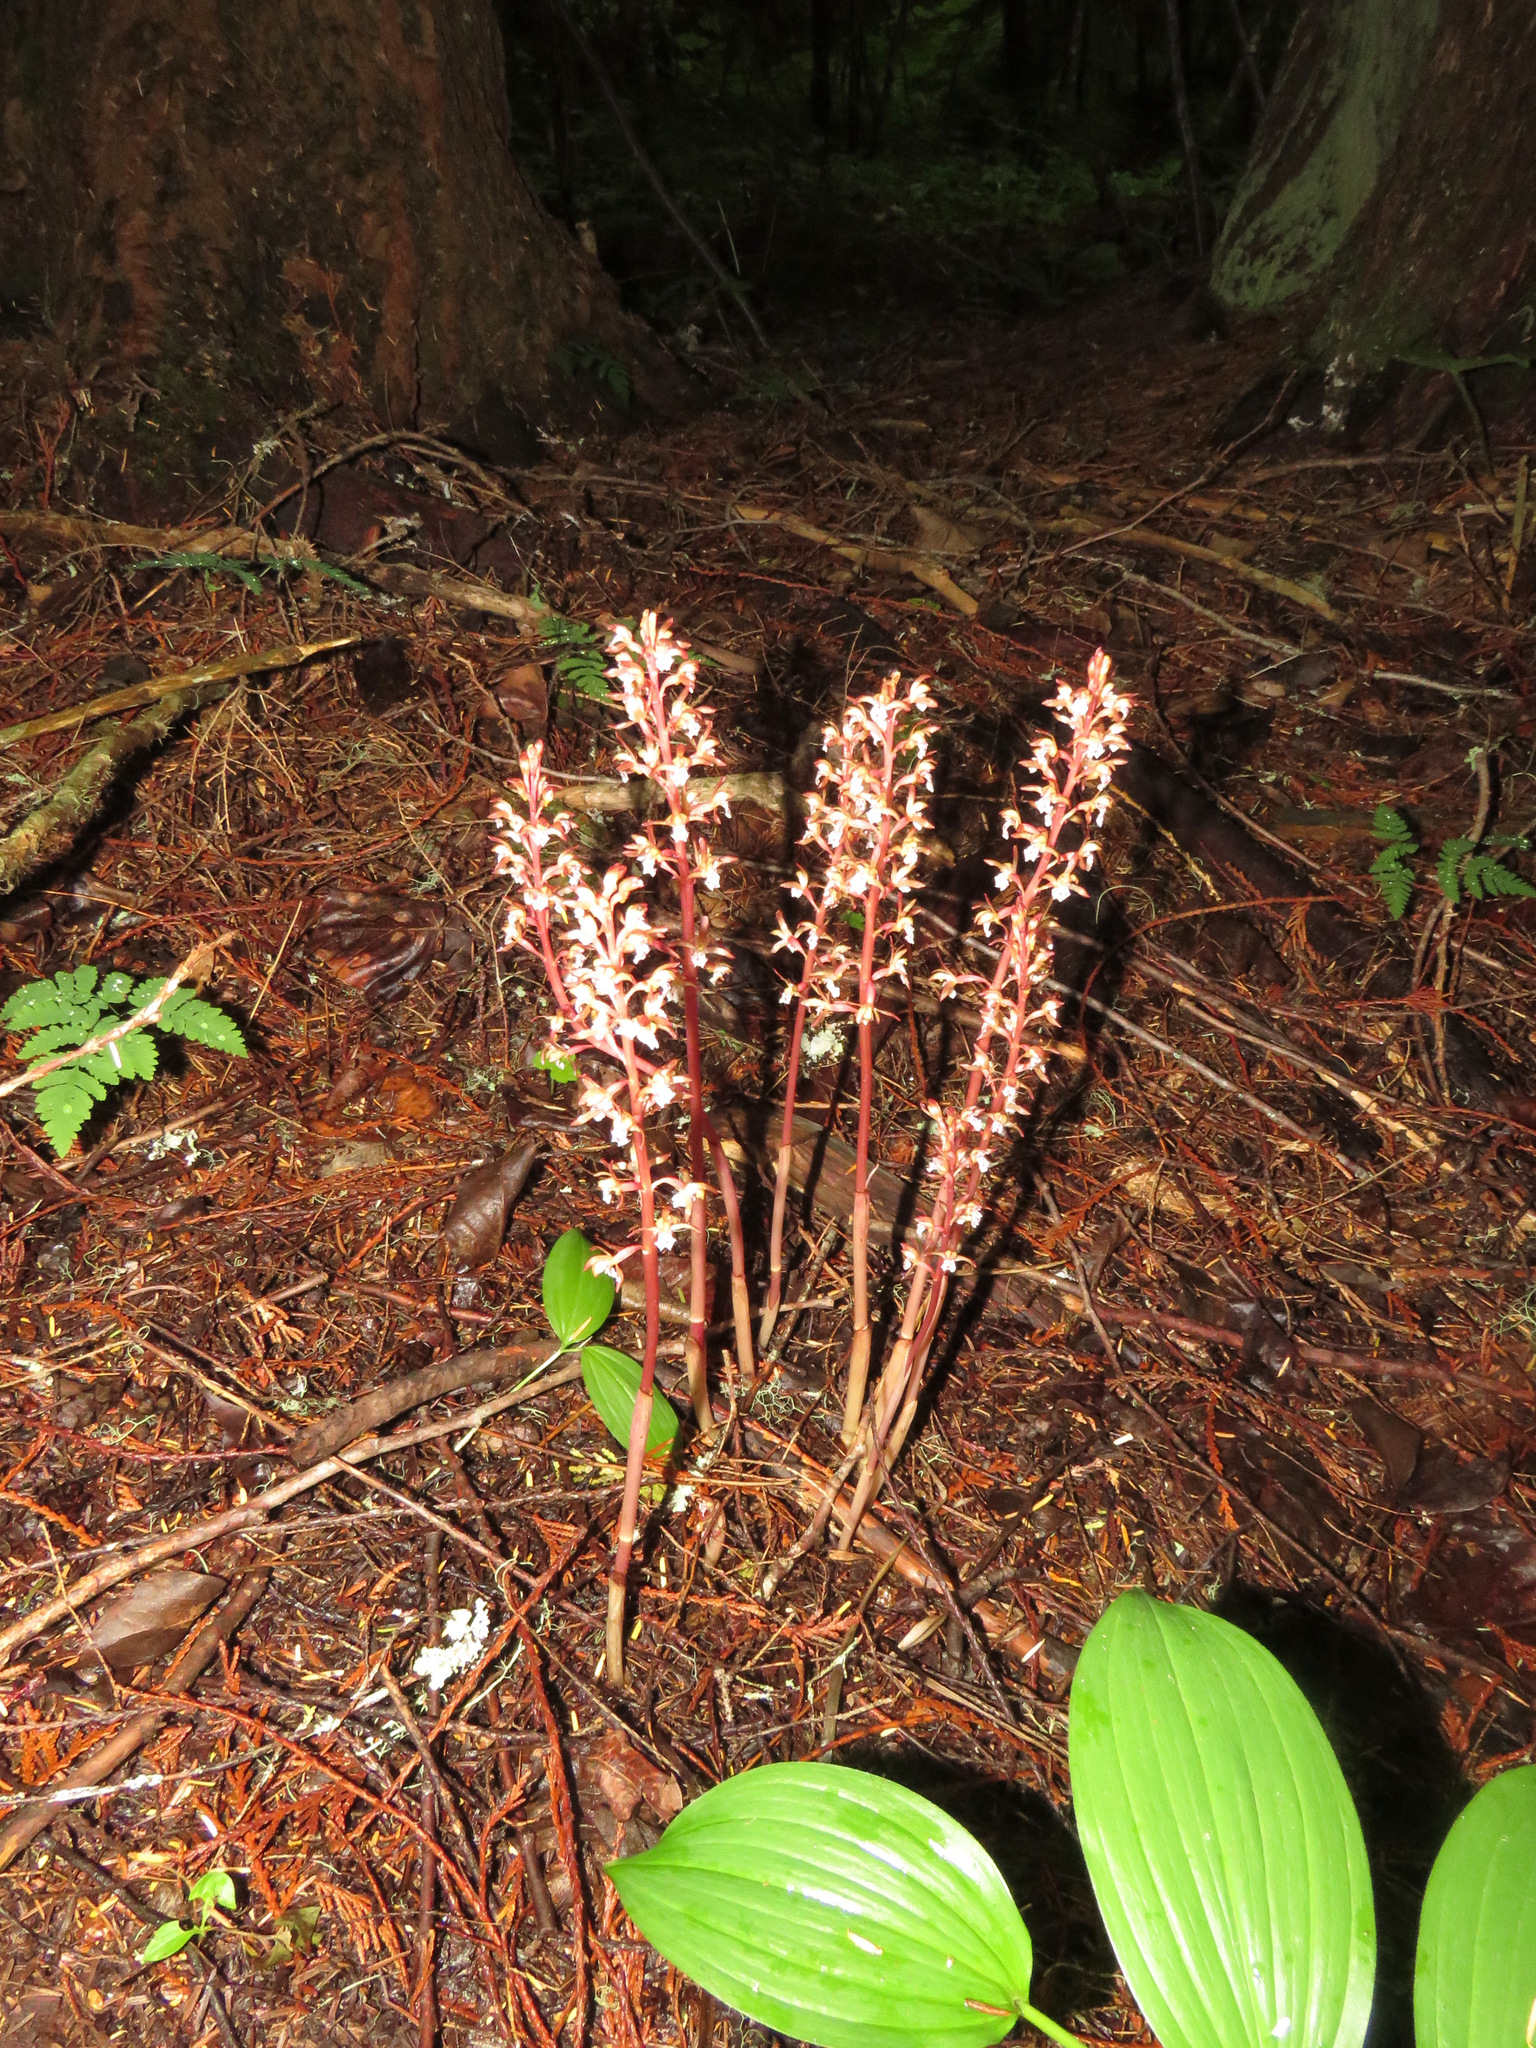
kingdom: Plantae
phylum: Tracheophyta
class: Liliopsida
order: Asparagales
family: Orchidaceae
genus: Corallorhiza
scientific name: Corallorhiza maculata
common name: Spotted coralroot
